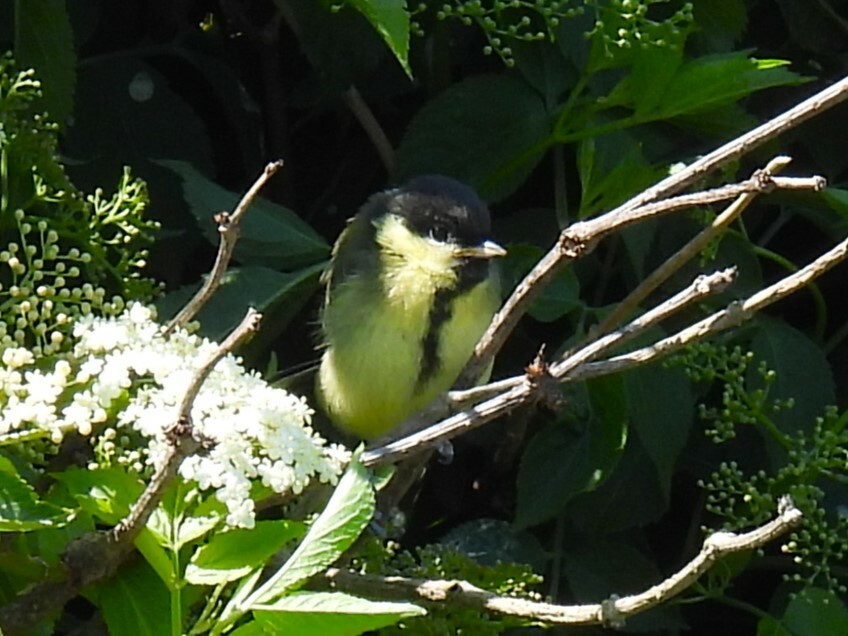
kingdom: Animalia
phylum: Chordata
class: Aves
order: Passeriformes
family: Paridae
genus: Parus
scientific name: Parus major
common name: Great tit
